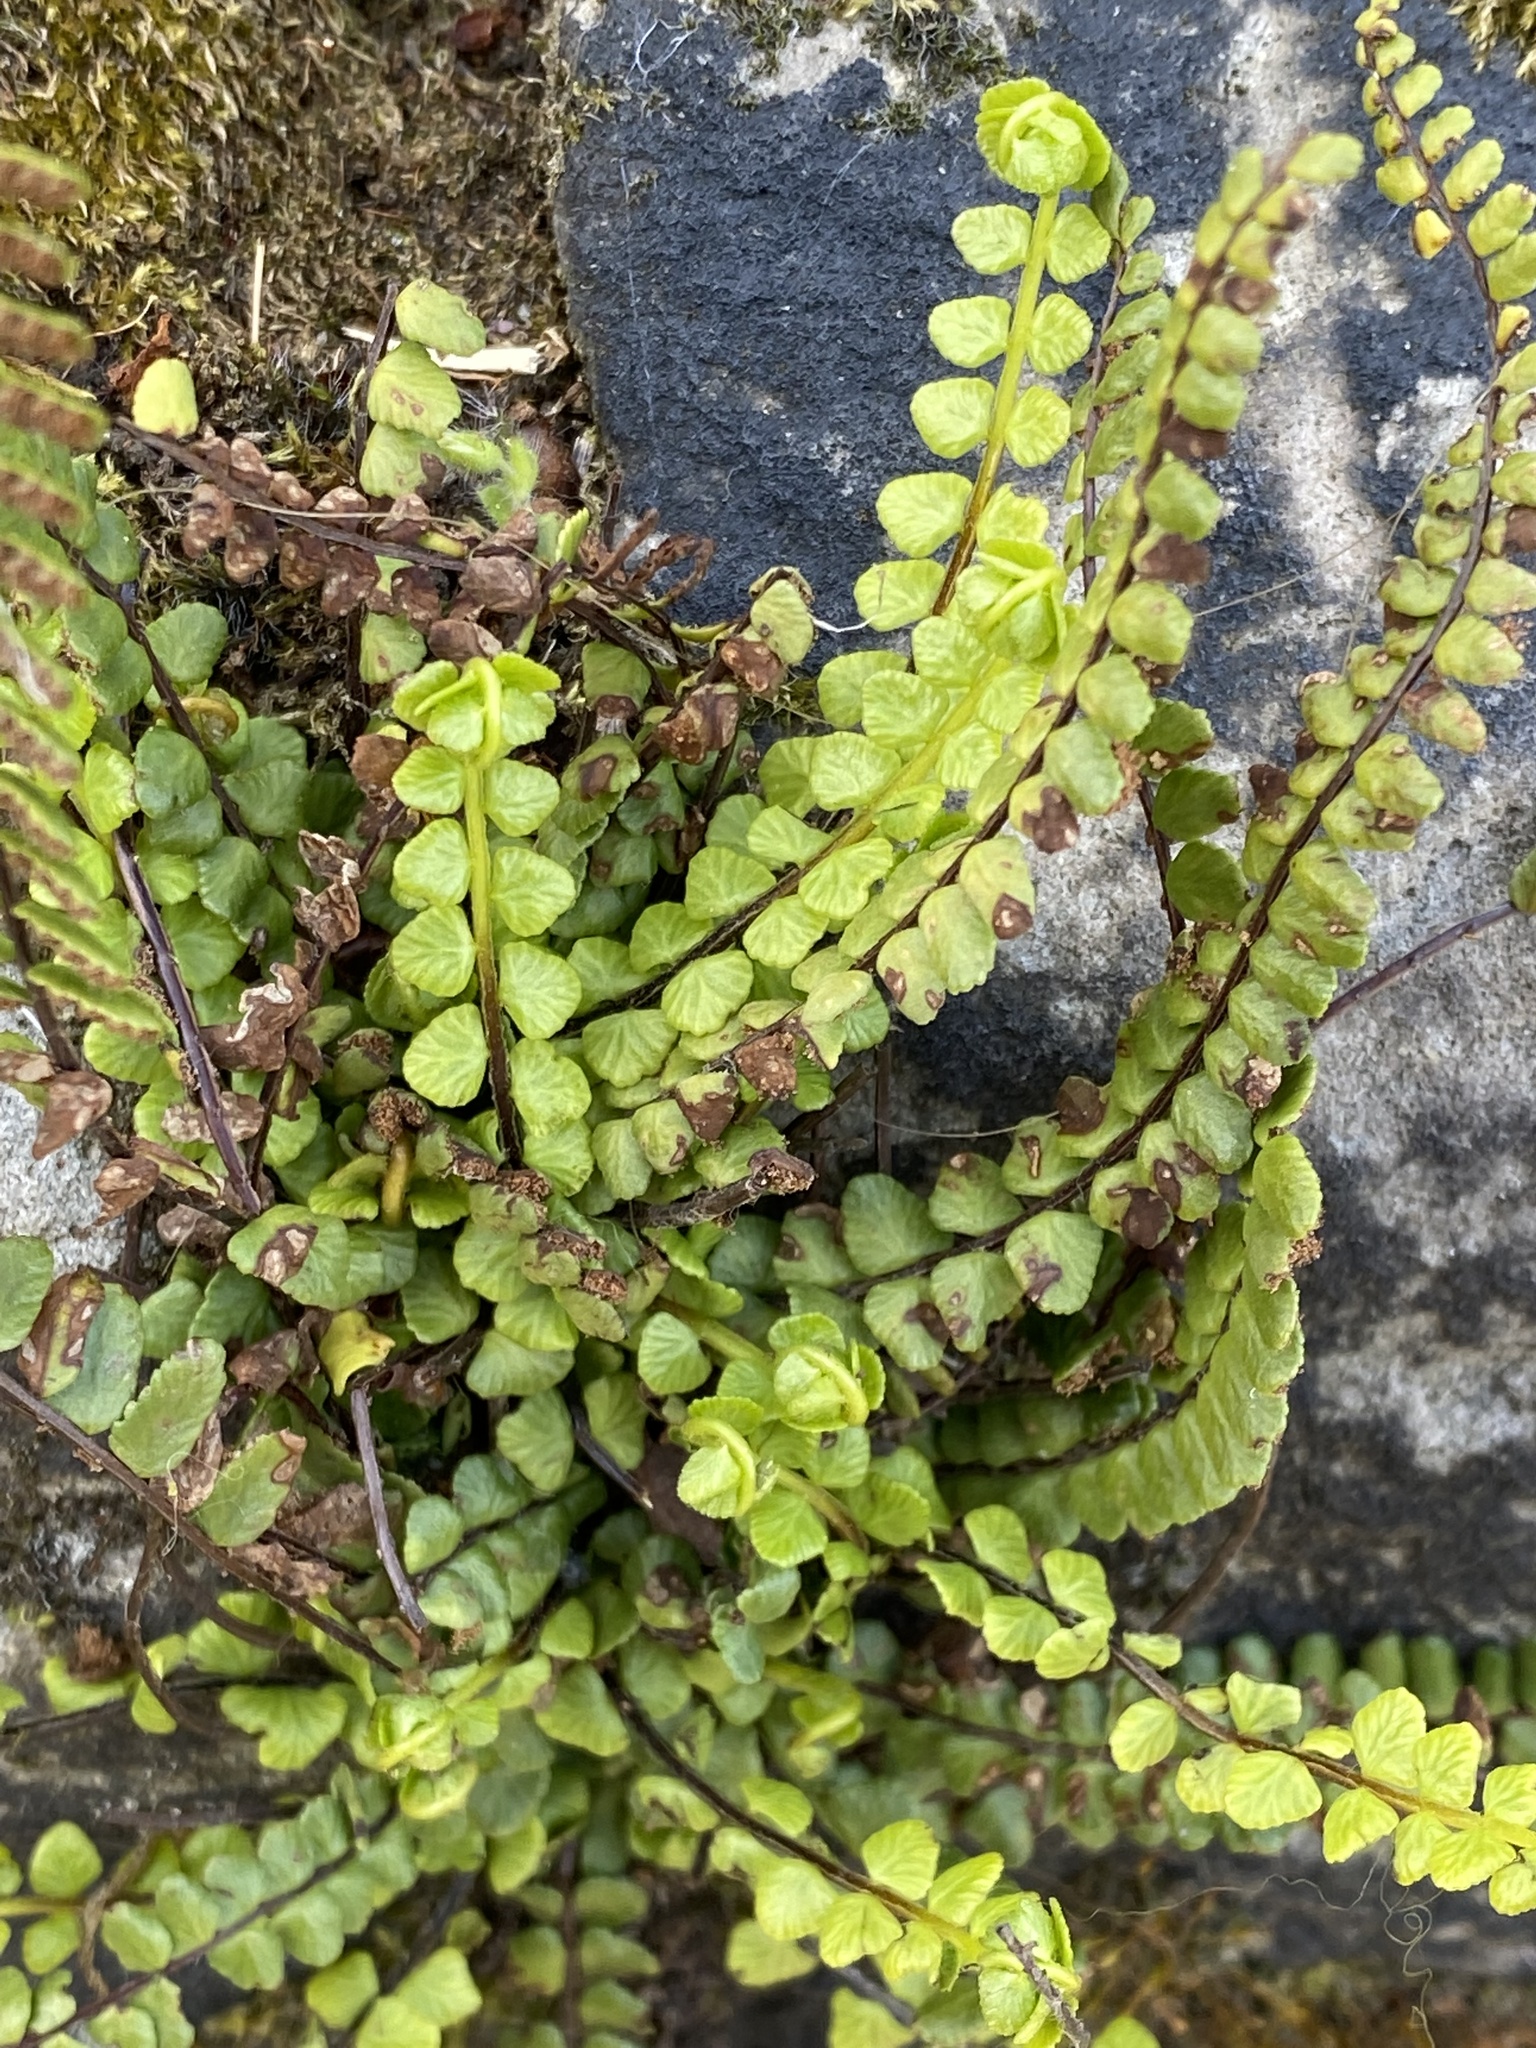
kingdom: Plantae
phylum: Tracheophyta
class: Polypodiopsida
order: Polypodiales
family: Aspleniaceae
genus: Asplenium
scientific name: Asplenium trichomanes
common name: Maidenhair spleenwort
